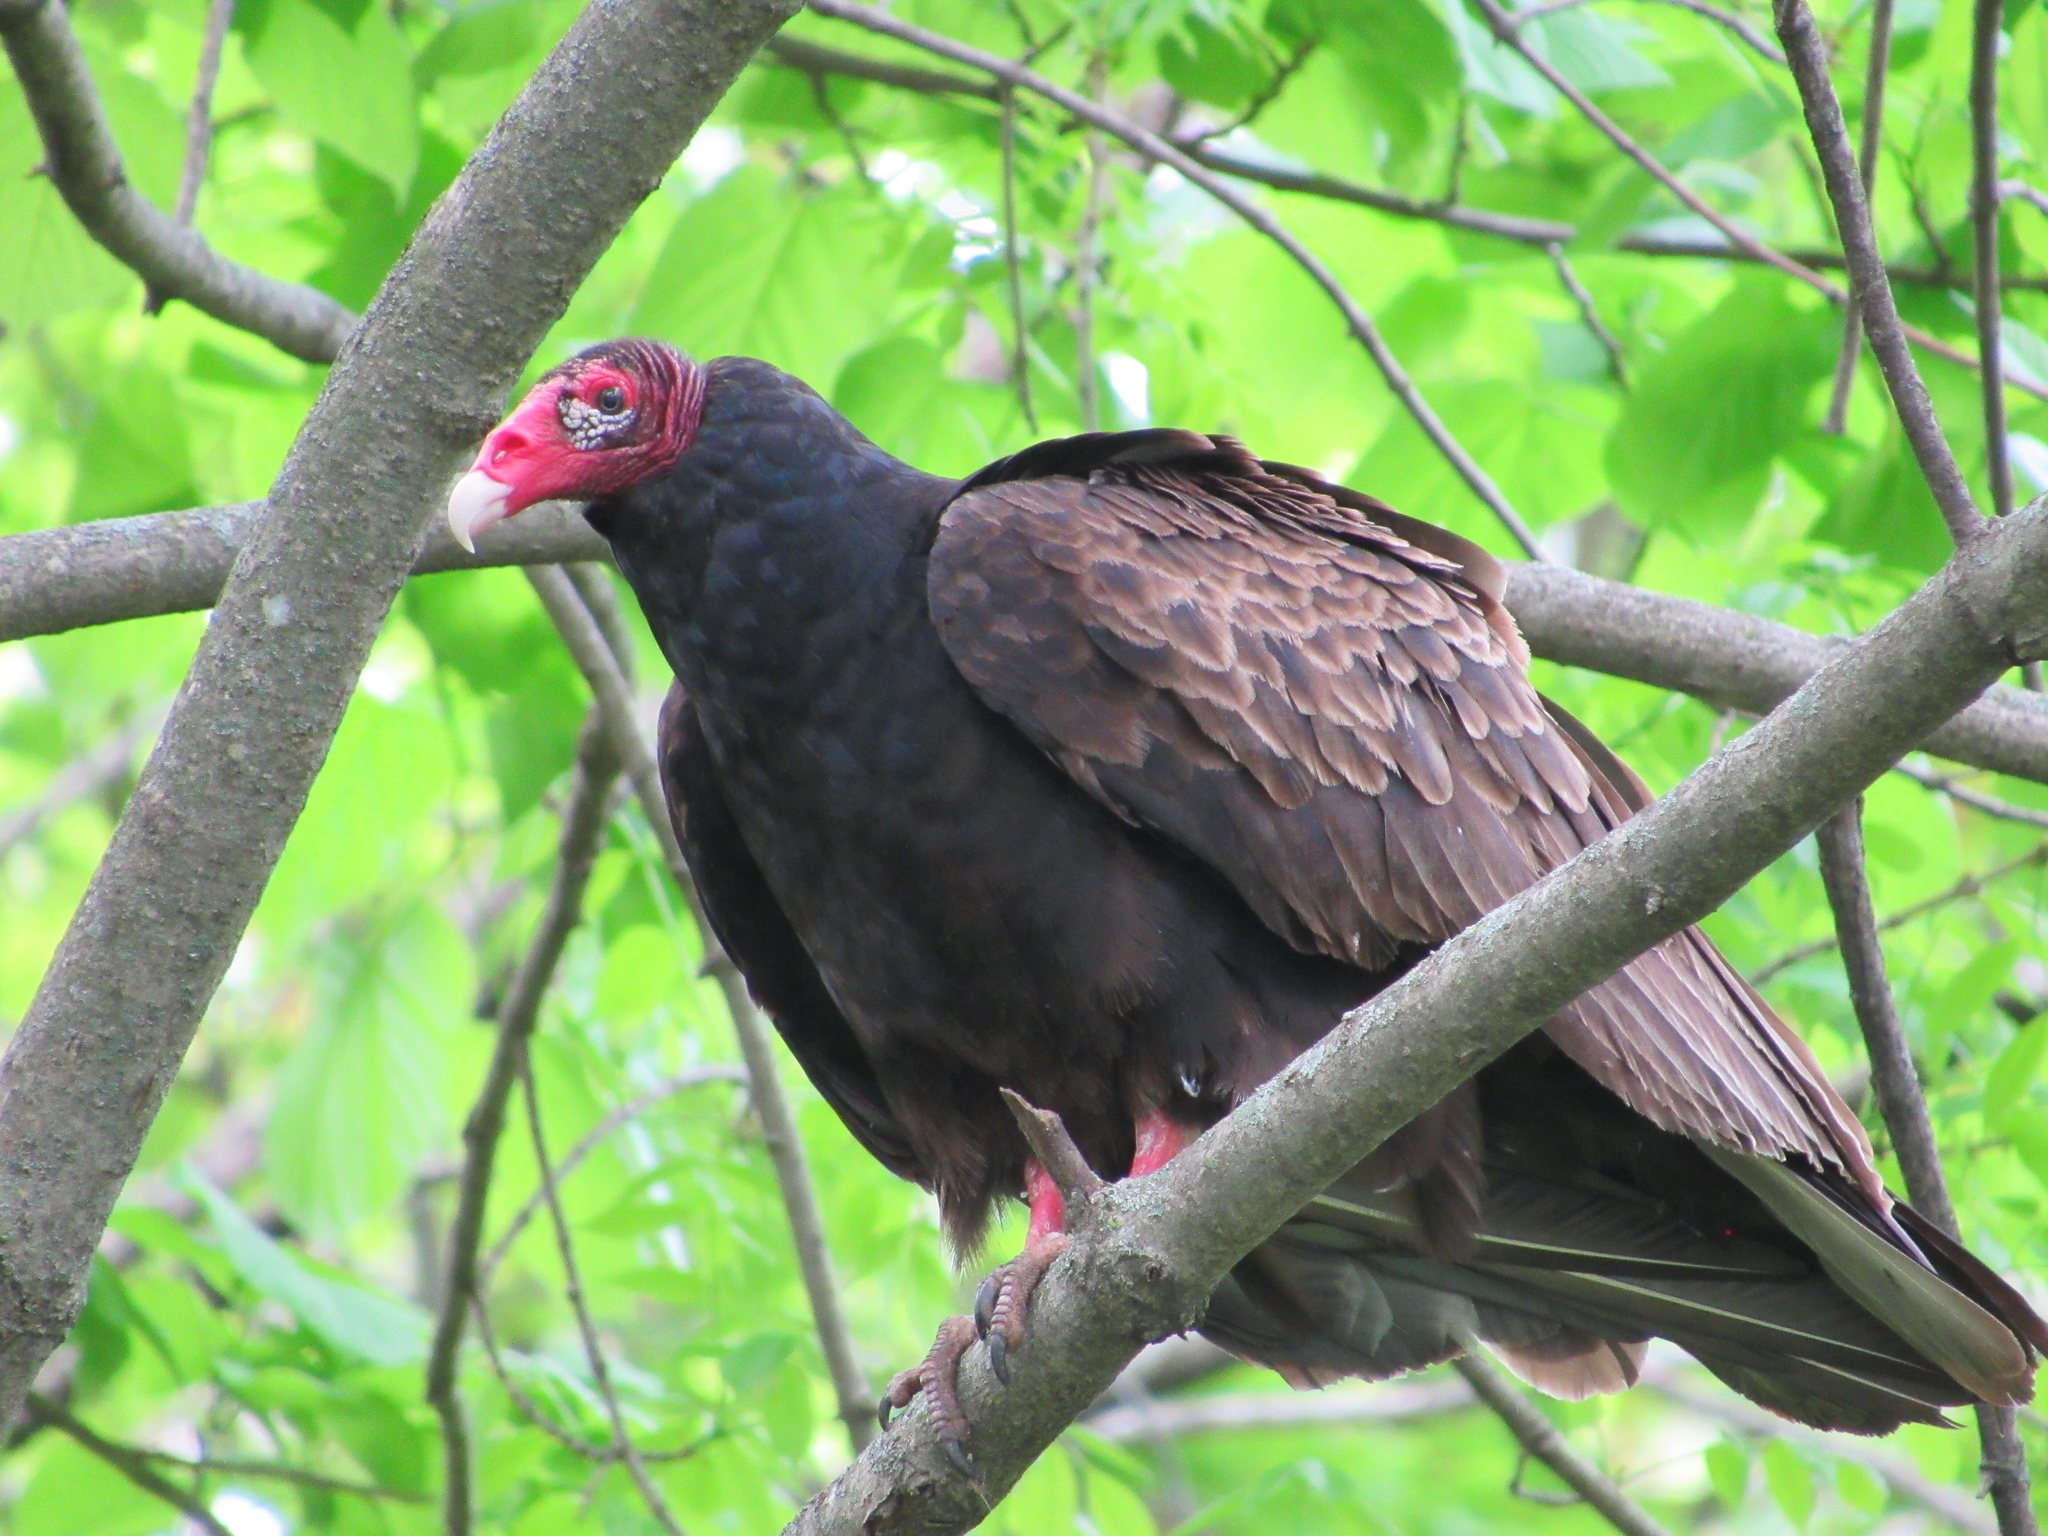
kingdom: Animalia
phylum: Chordata
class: Aves
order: Accipitriformes
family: Cathartidae
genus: Cathartes
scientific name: Cathartes aura
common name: Turkey vulture
